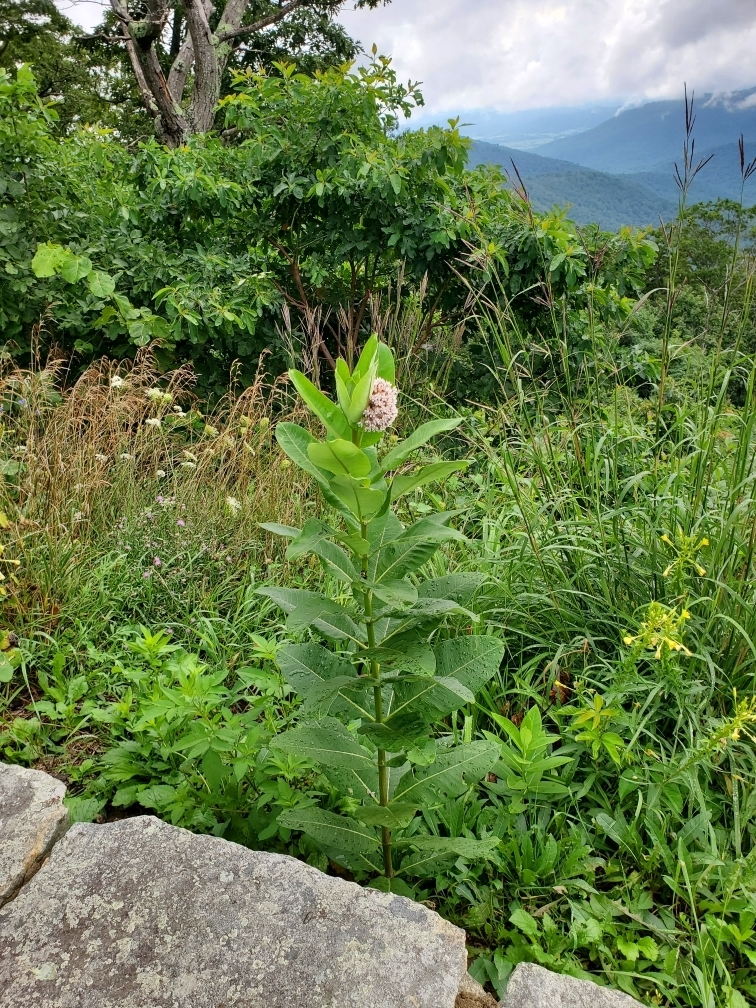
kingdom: Plantae
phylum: Tracheophyta
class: Magnoliopsida
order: Gentianales
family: Apocynaceae
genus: Asclepias
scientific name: Asclepias syriaca
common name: Common milkweed
